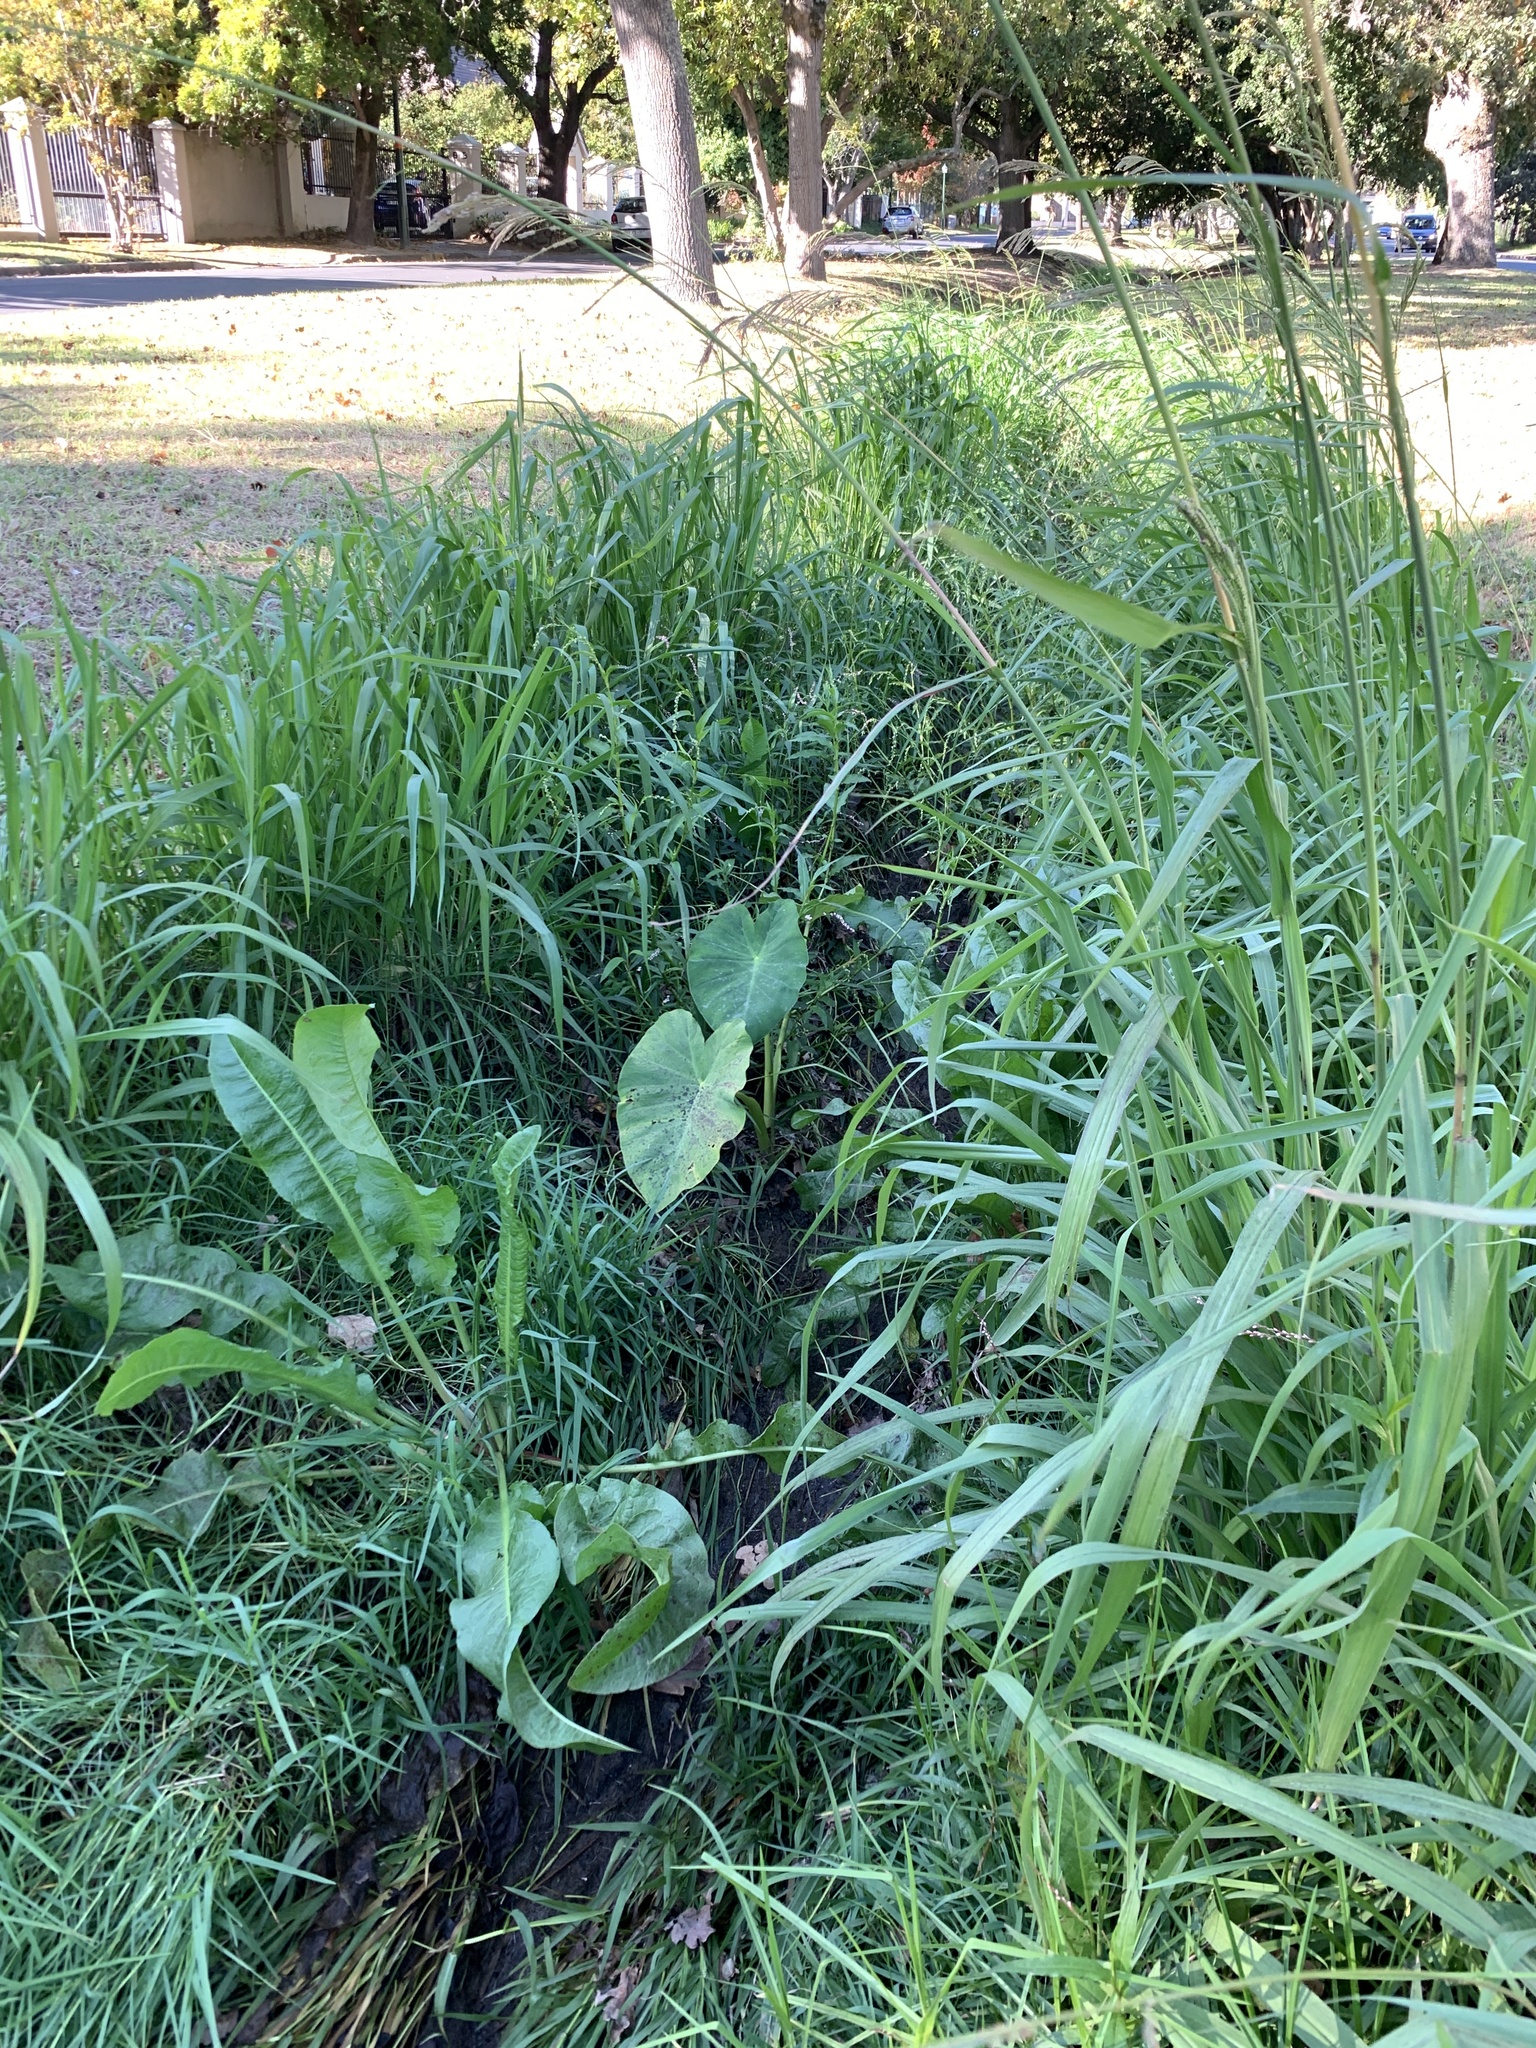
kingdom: Plantae
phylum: Tracheophyta
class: Liliopsida
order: Alismatales
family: Araceae
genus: Colocasia
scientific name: Colocasia esculenta
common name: Taro
